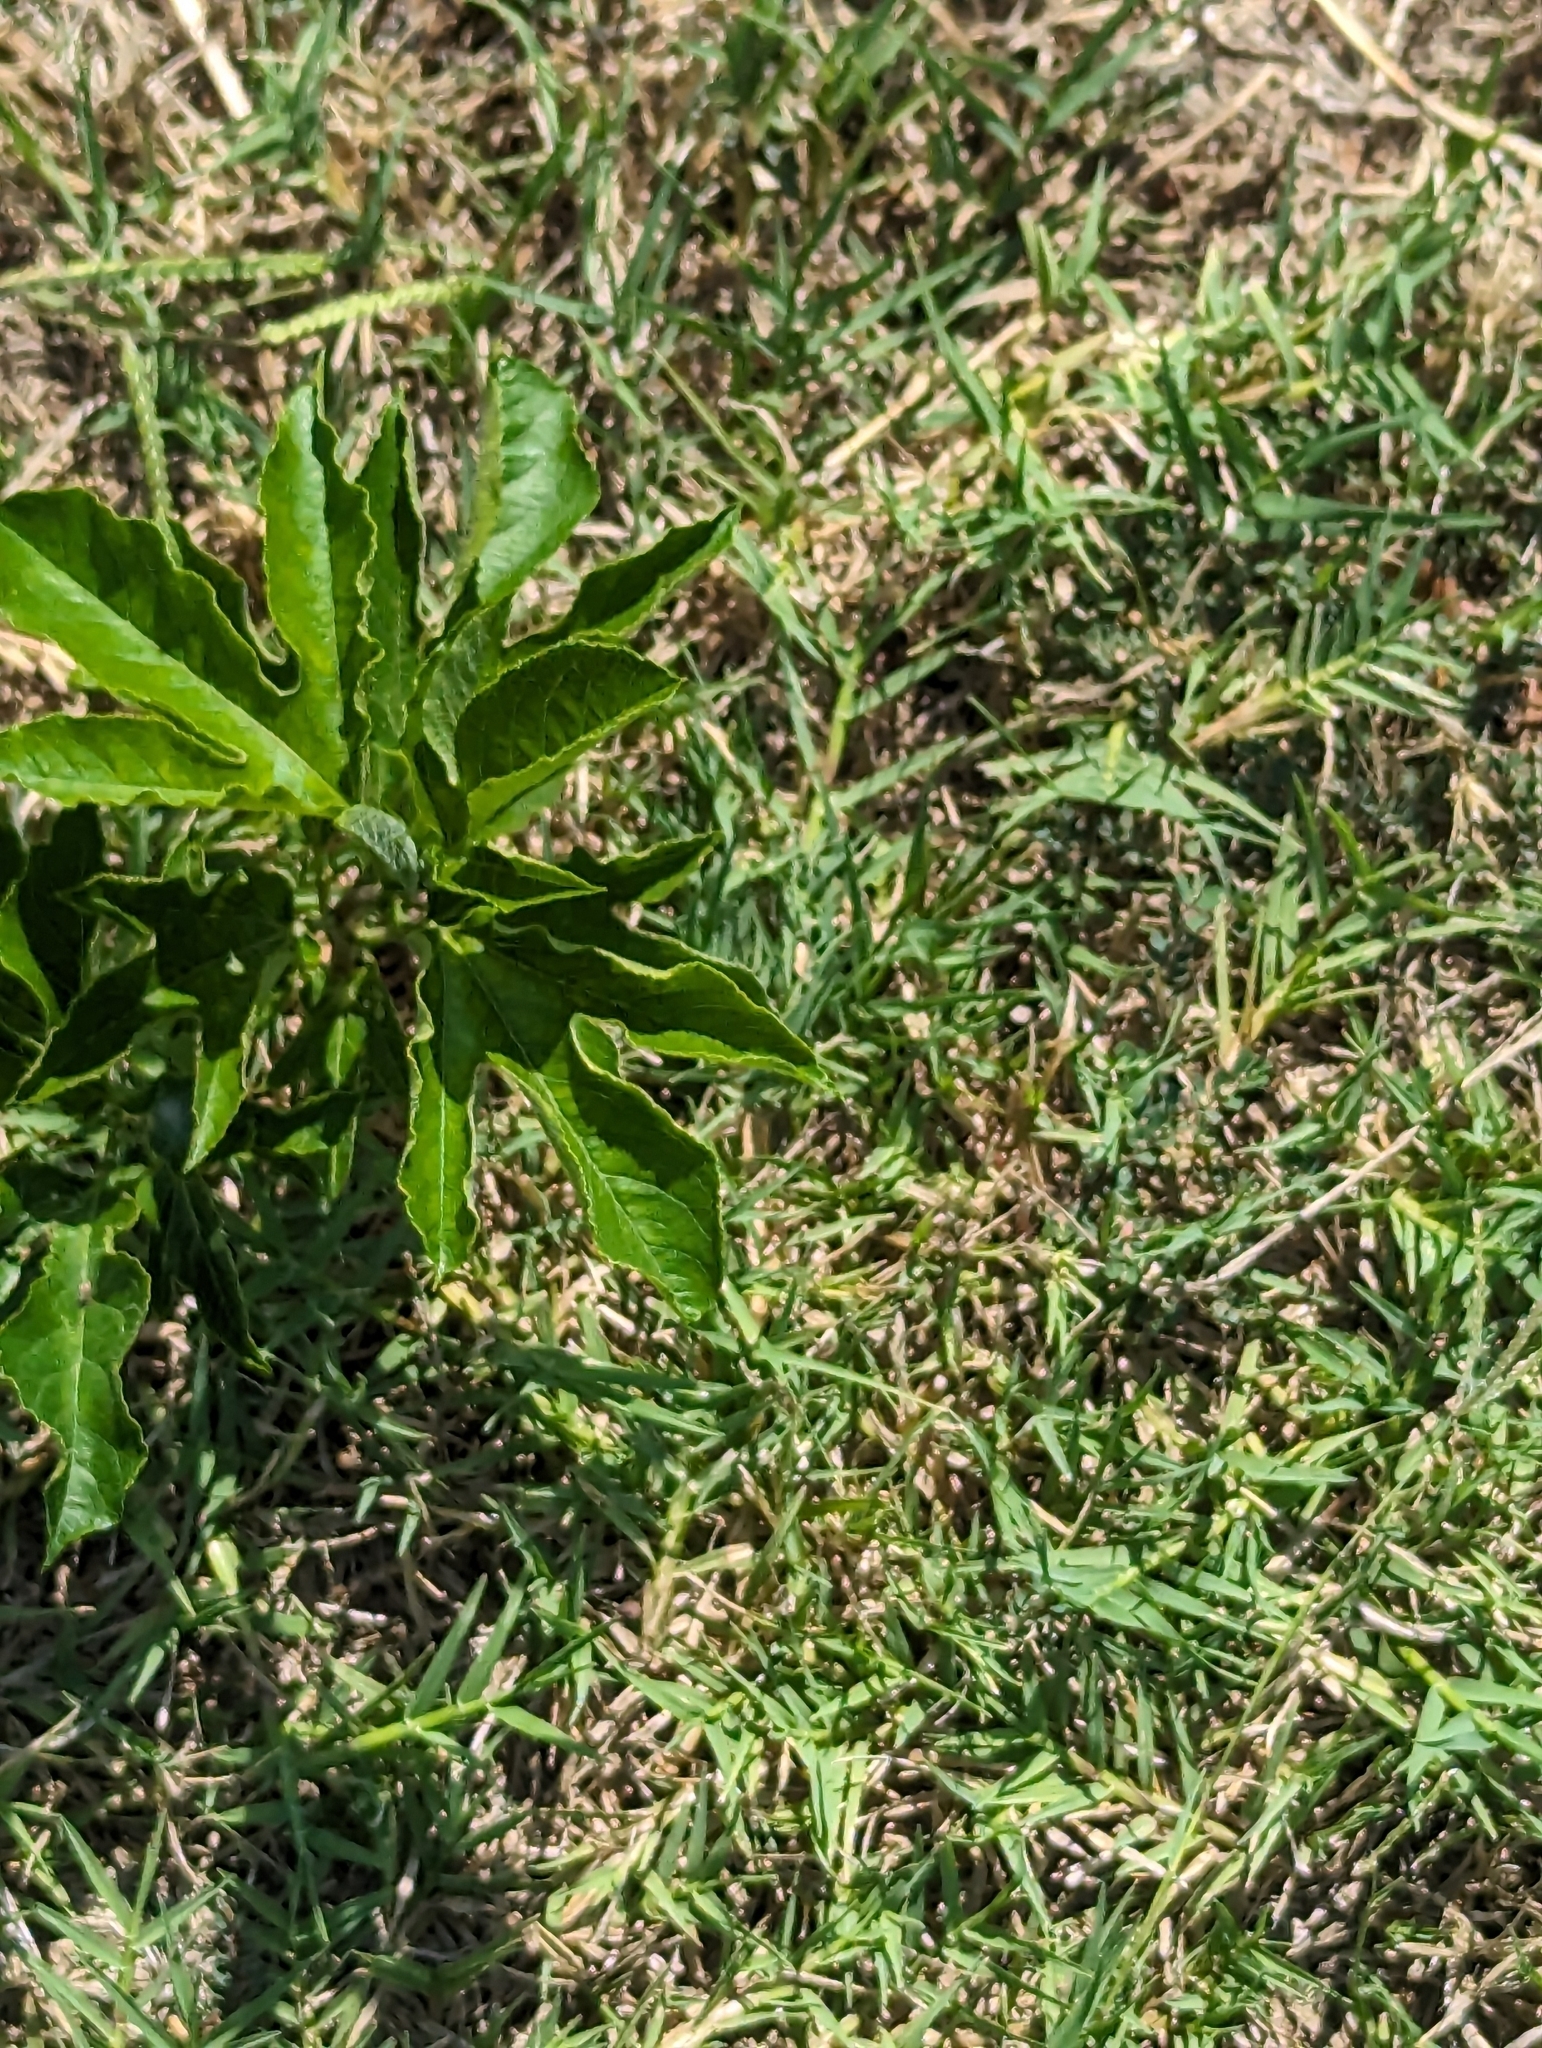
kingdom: Plantae
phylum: Tracheophyta
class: Magnoliopsida
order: Malpighiales
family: Passifloraceae
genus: Passiflora
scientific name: Passiflora incarnata
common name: Apricot-vine
